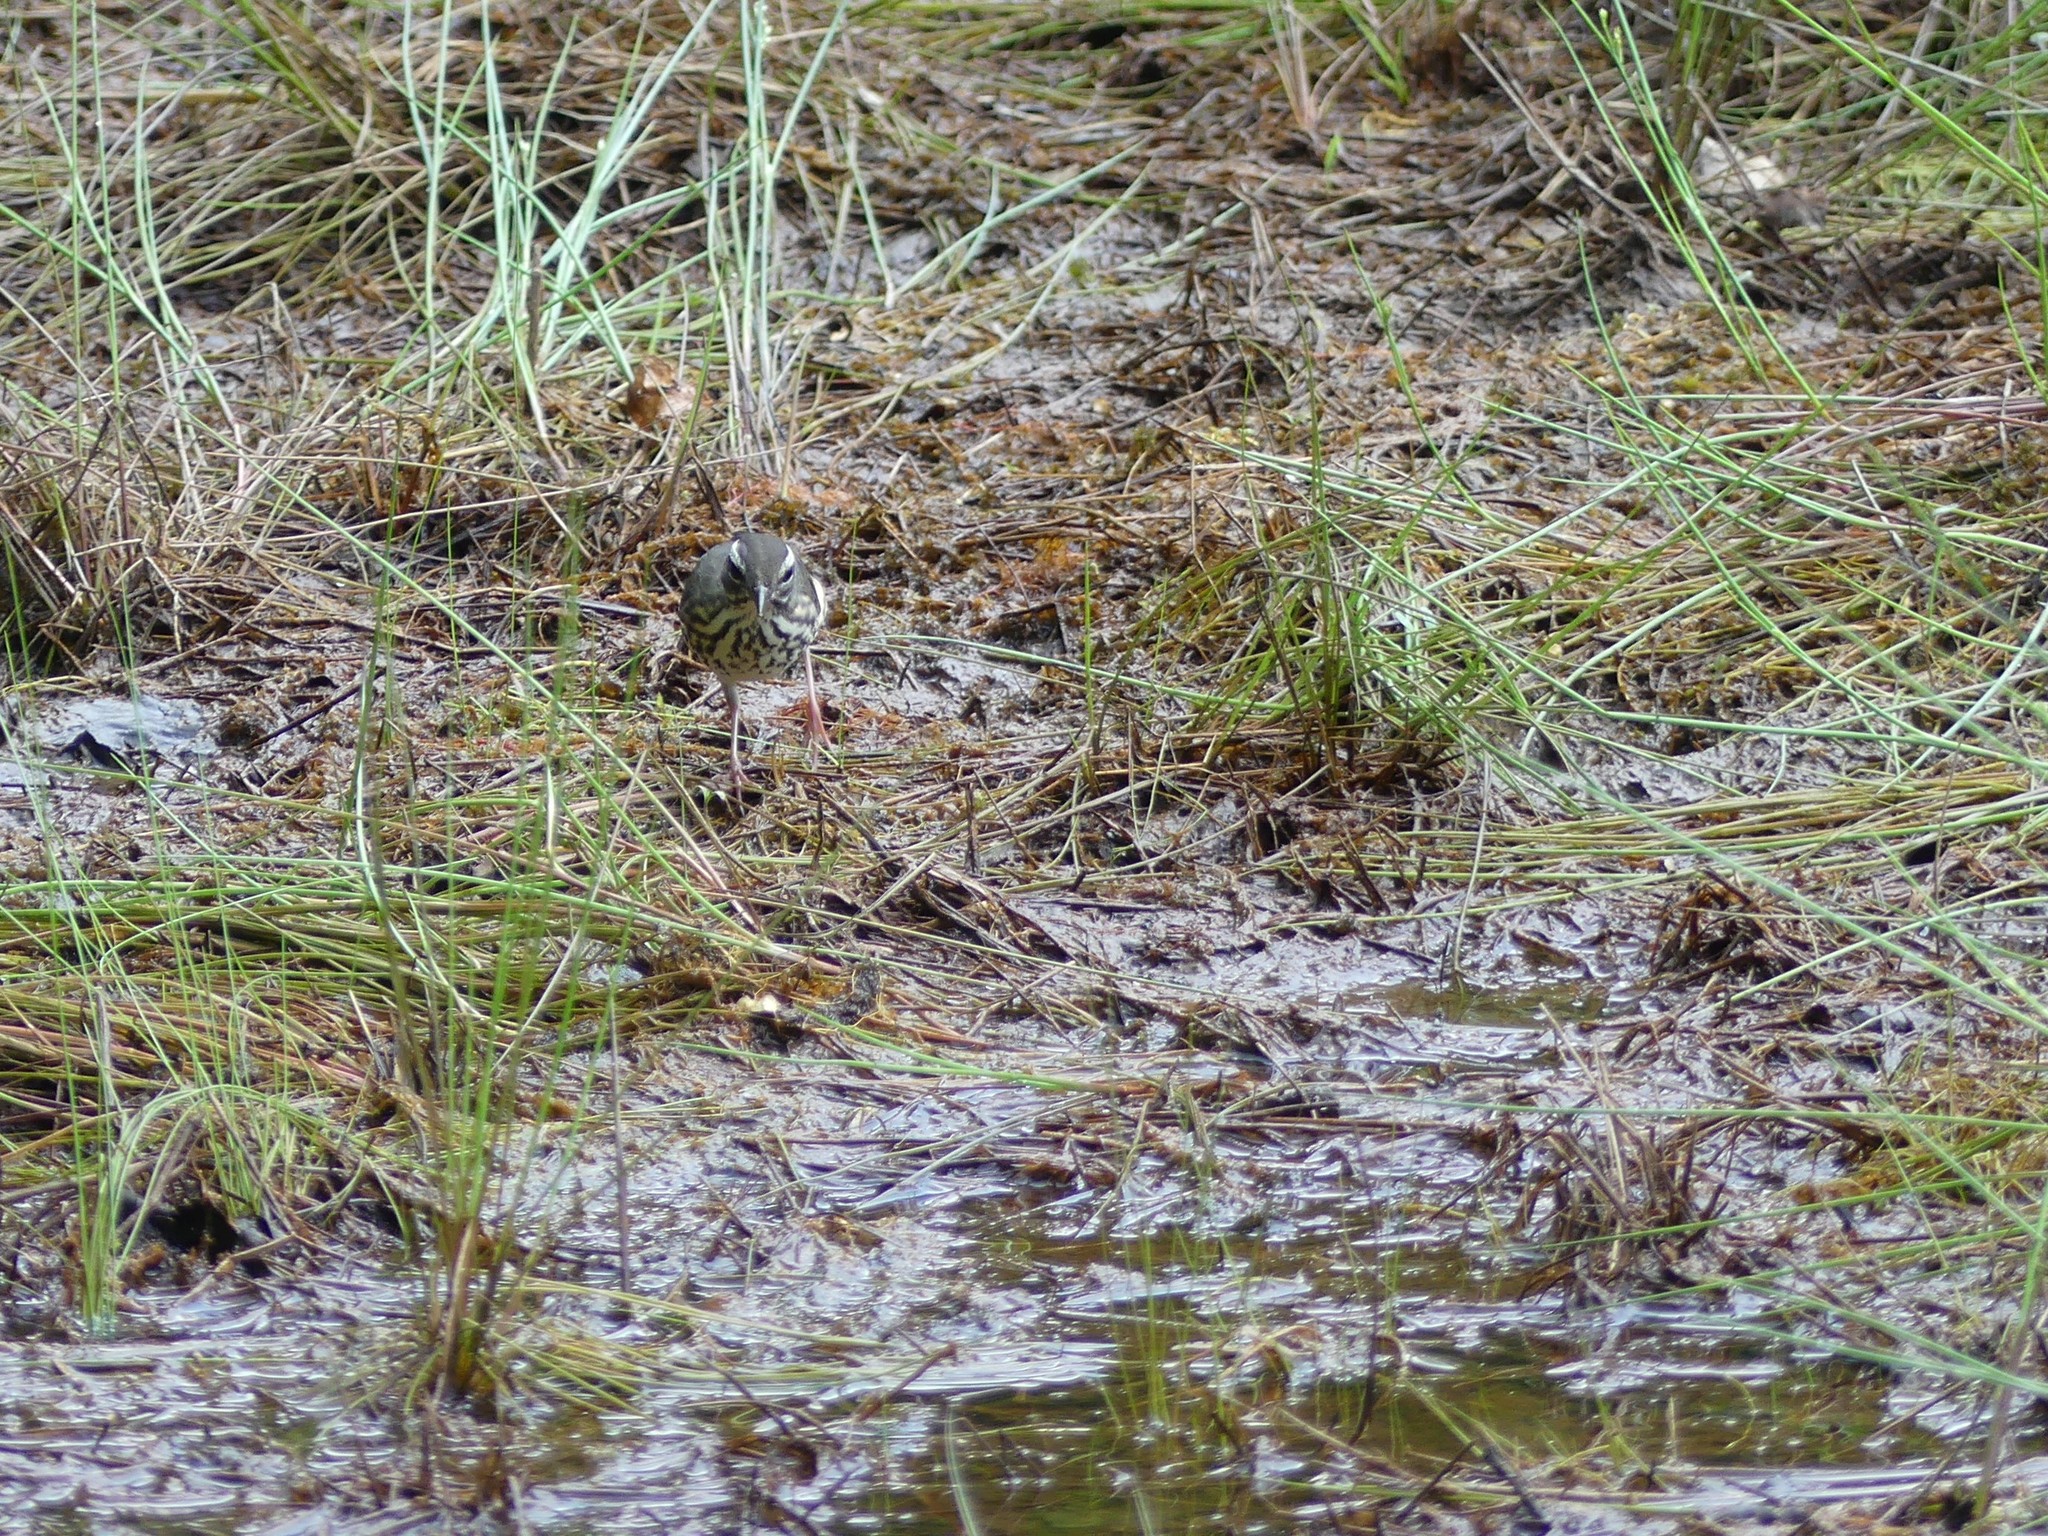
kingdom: Animalia
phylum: Chordata
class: Aves
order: Passeriformes
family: Parulidae
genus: Parkesia
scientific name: Parkesia motacilla
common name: Louisiana waterthrush
